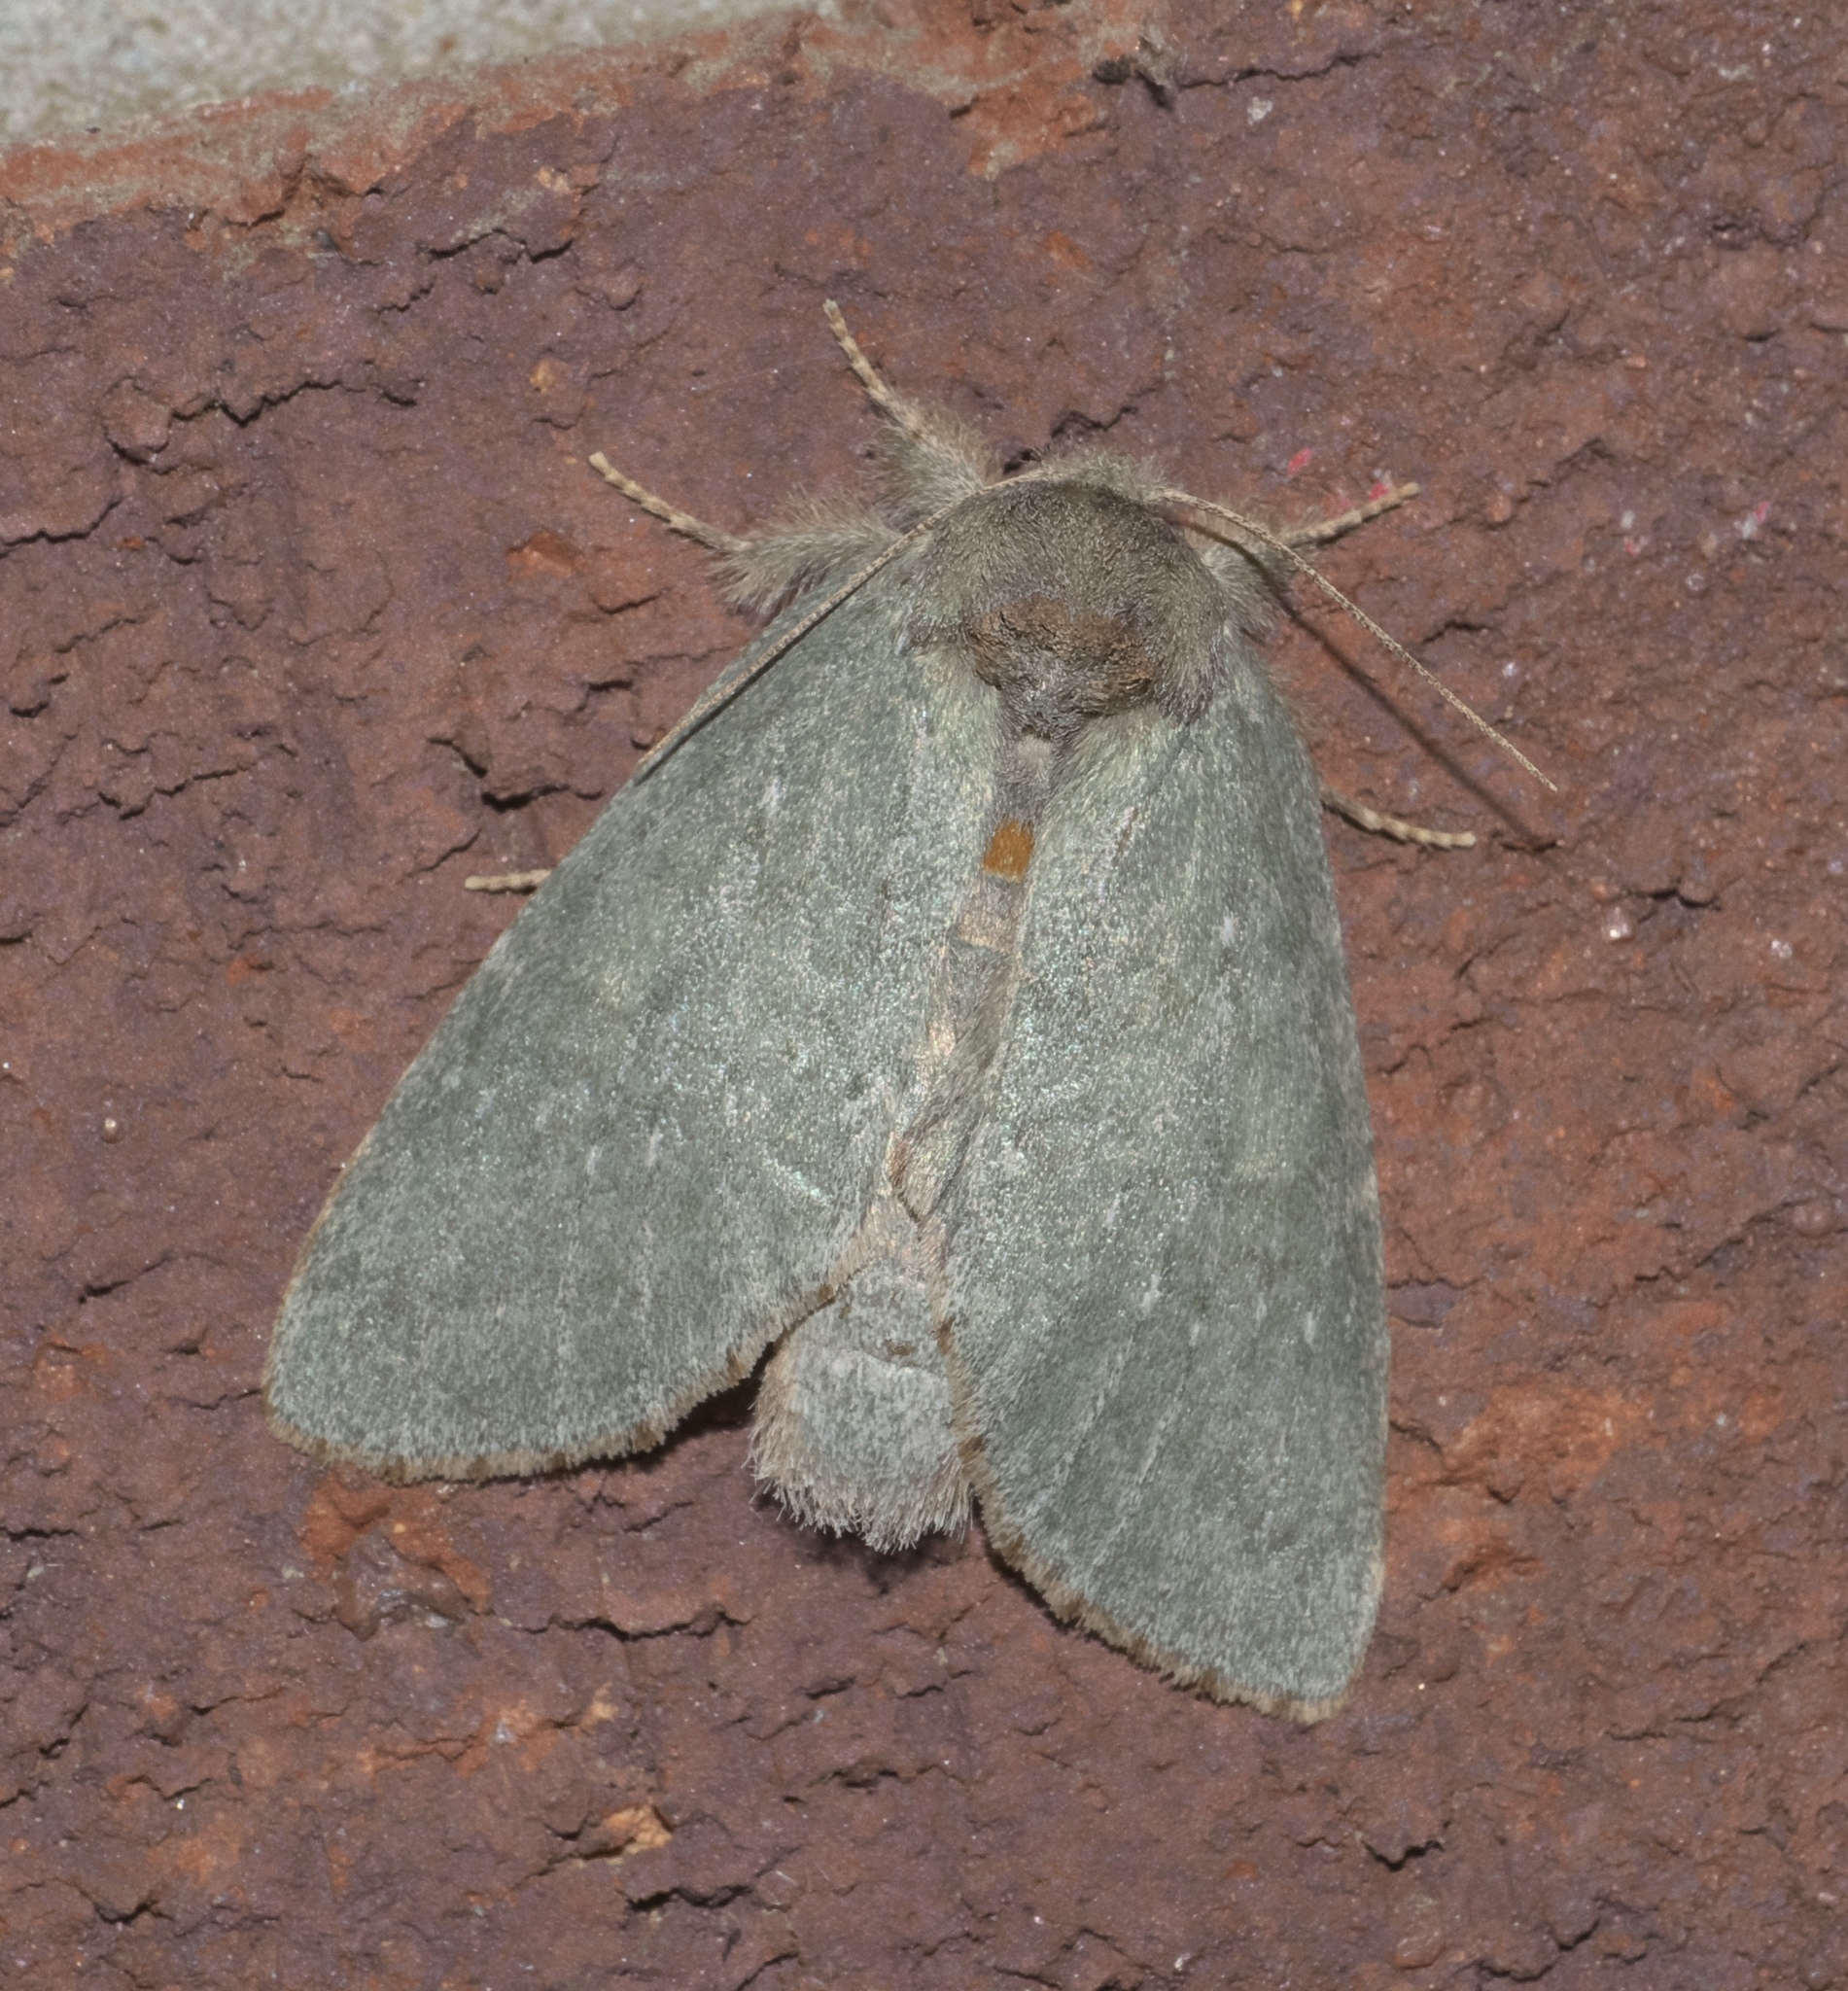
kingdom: Animalia
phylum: Arthropoda
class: Insecta
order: Lepidoptera
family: Notodontidae
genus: Misogada
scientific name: Misogada unicolor
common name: Drab prominent
